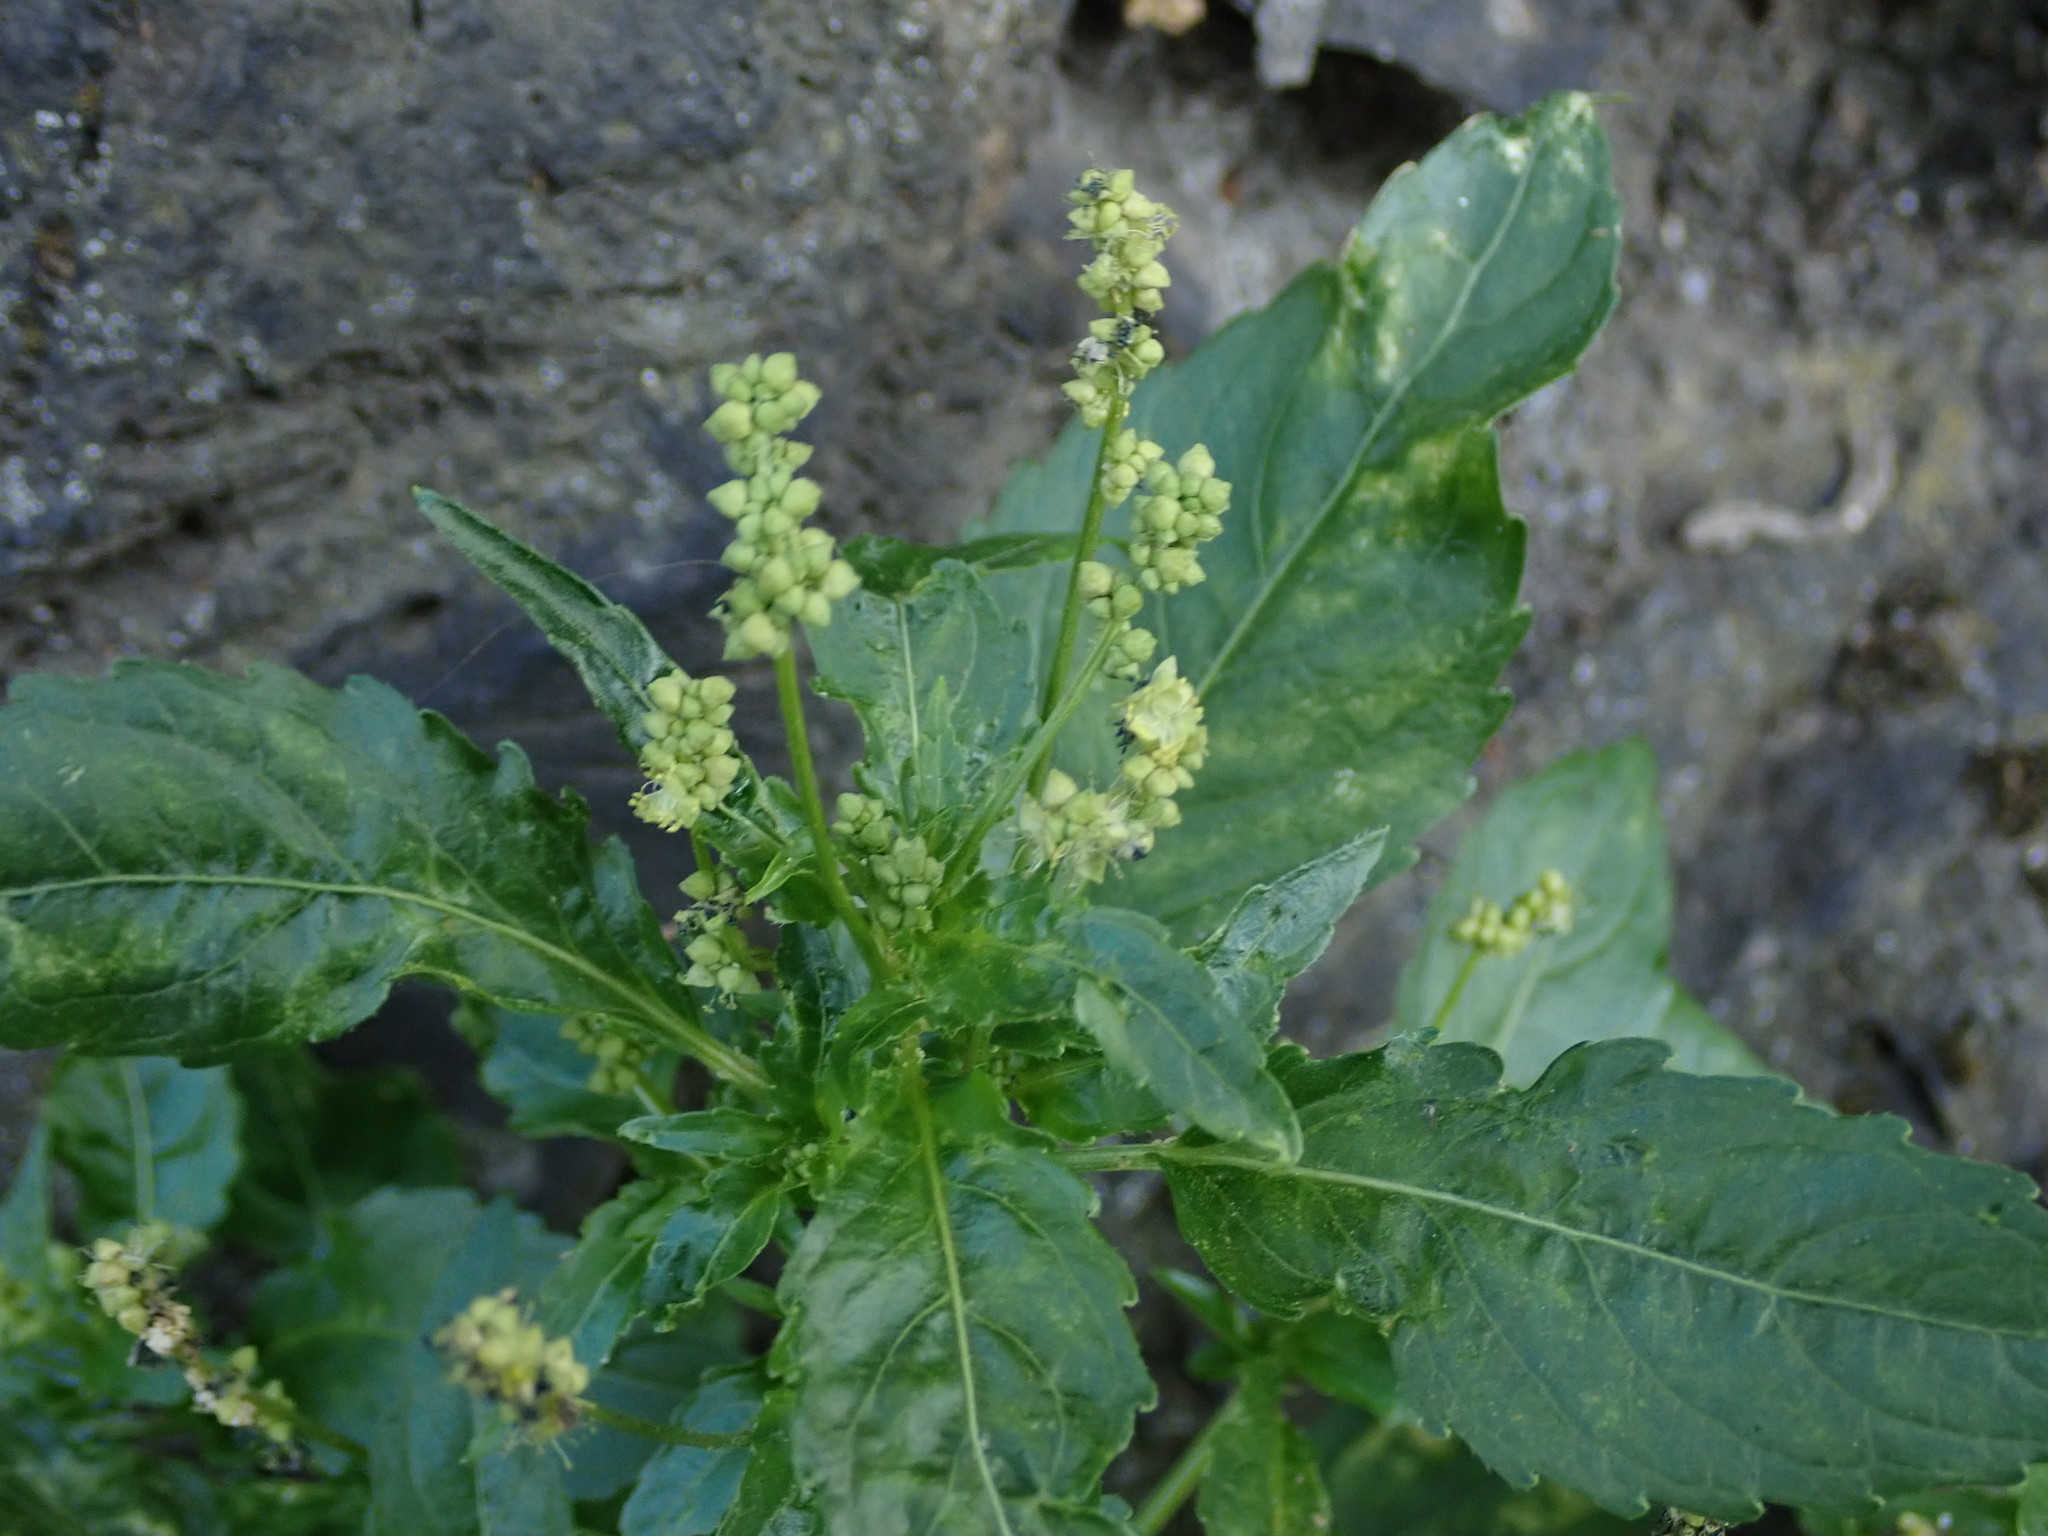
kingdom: Plantae
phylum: Tracheophyta
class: Magnoliopsida
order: Malpighiales
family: Euphorbiaceae
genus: Mercurialis
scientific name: Mercurialis annua
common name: Annual mercury
